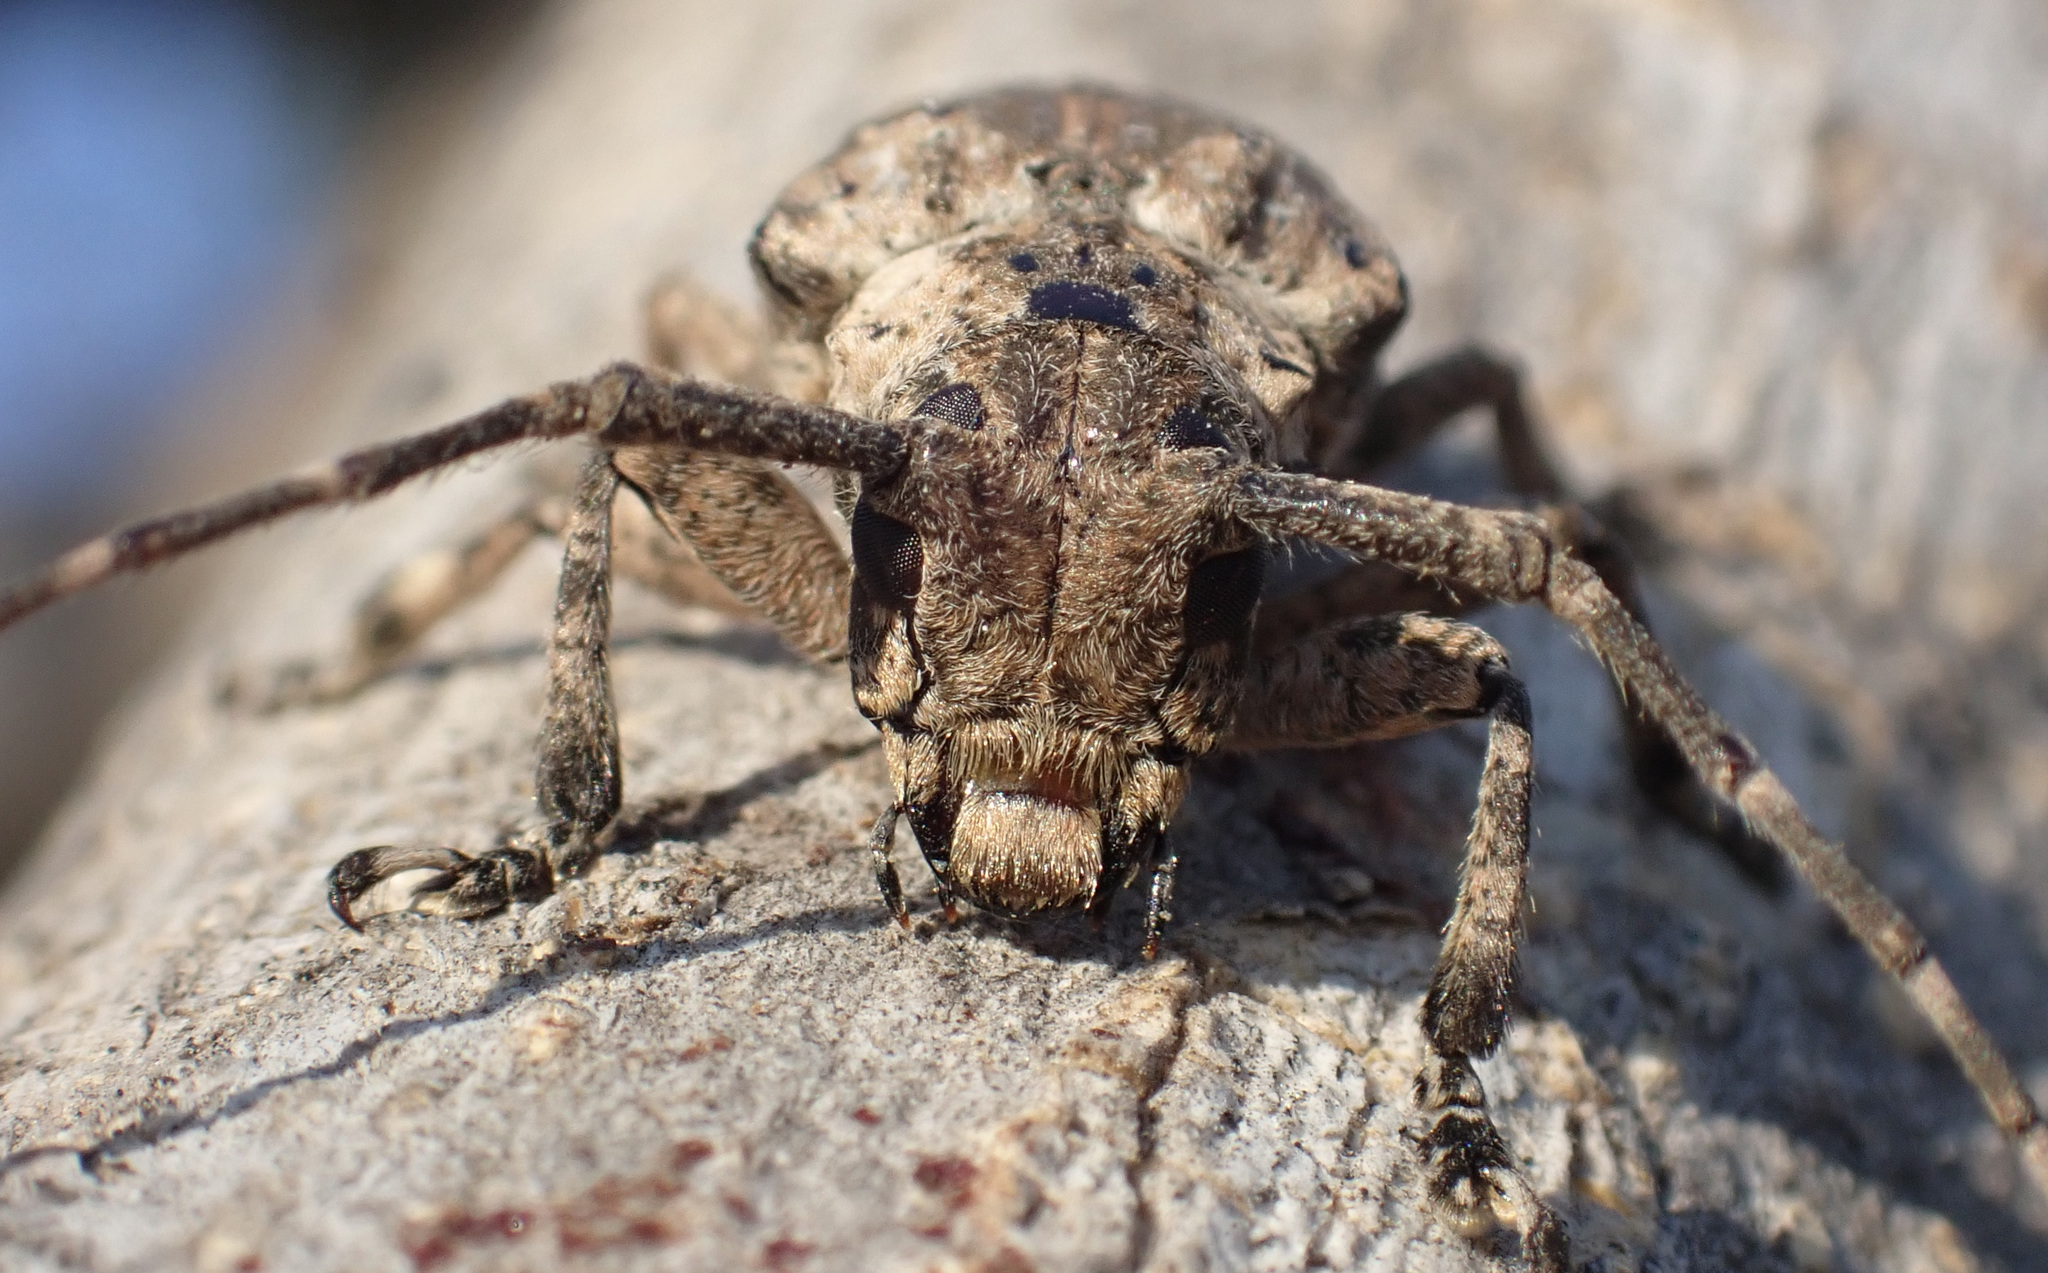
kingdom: Animalia
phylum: Arthropoda
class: Insecta
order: Coleoptera
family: Cerambycidae
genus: Coptops
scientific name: Coptops aedificator
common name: Long-horned beetle
